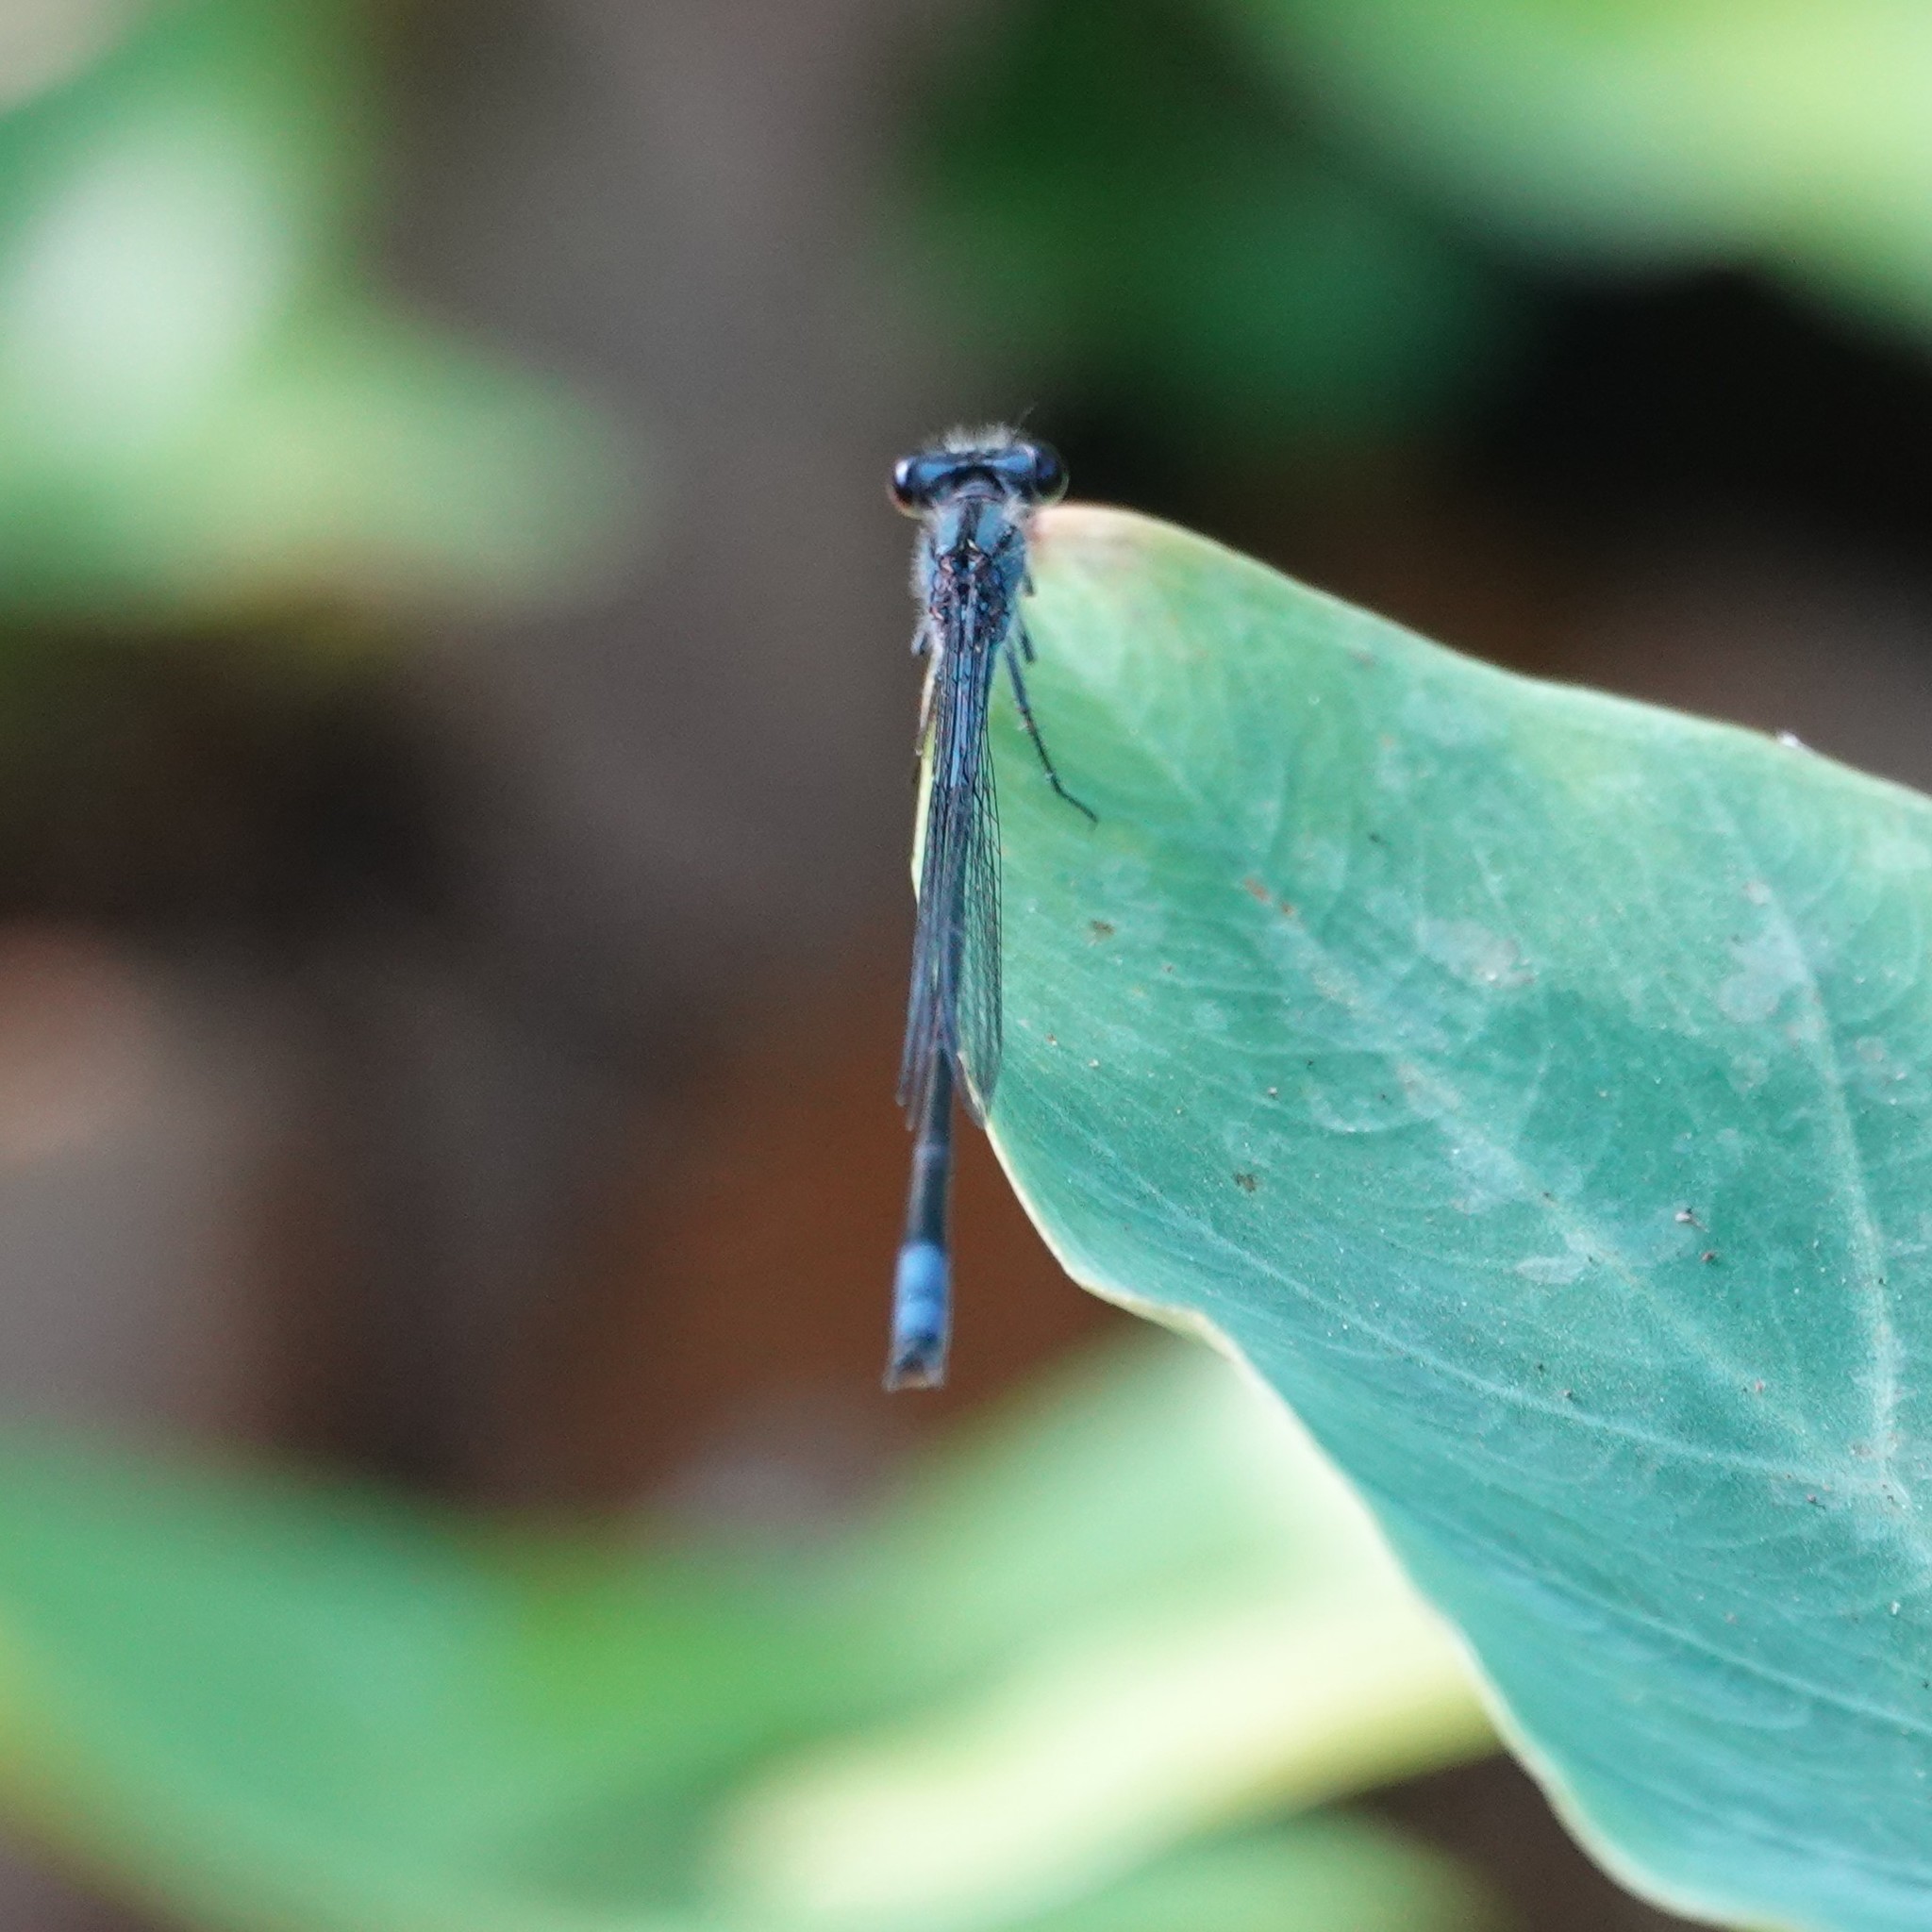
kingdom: Animalia
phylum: Arthropoda
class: Insecta
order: Odonata
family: Coenagrionidae
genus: Enallagma
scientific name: Enallagma cardenium
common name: Purple bluet
